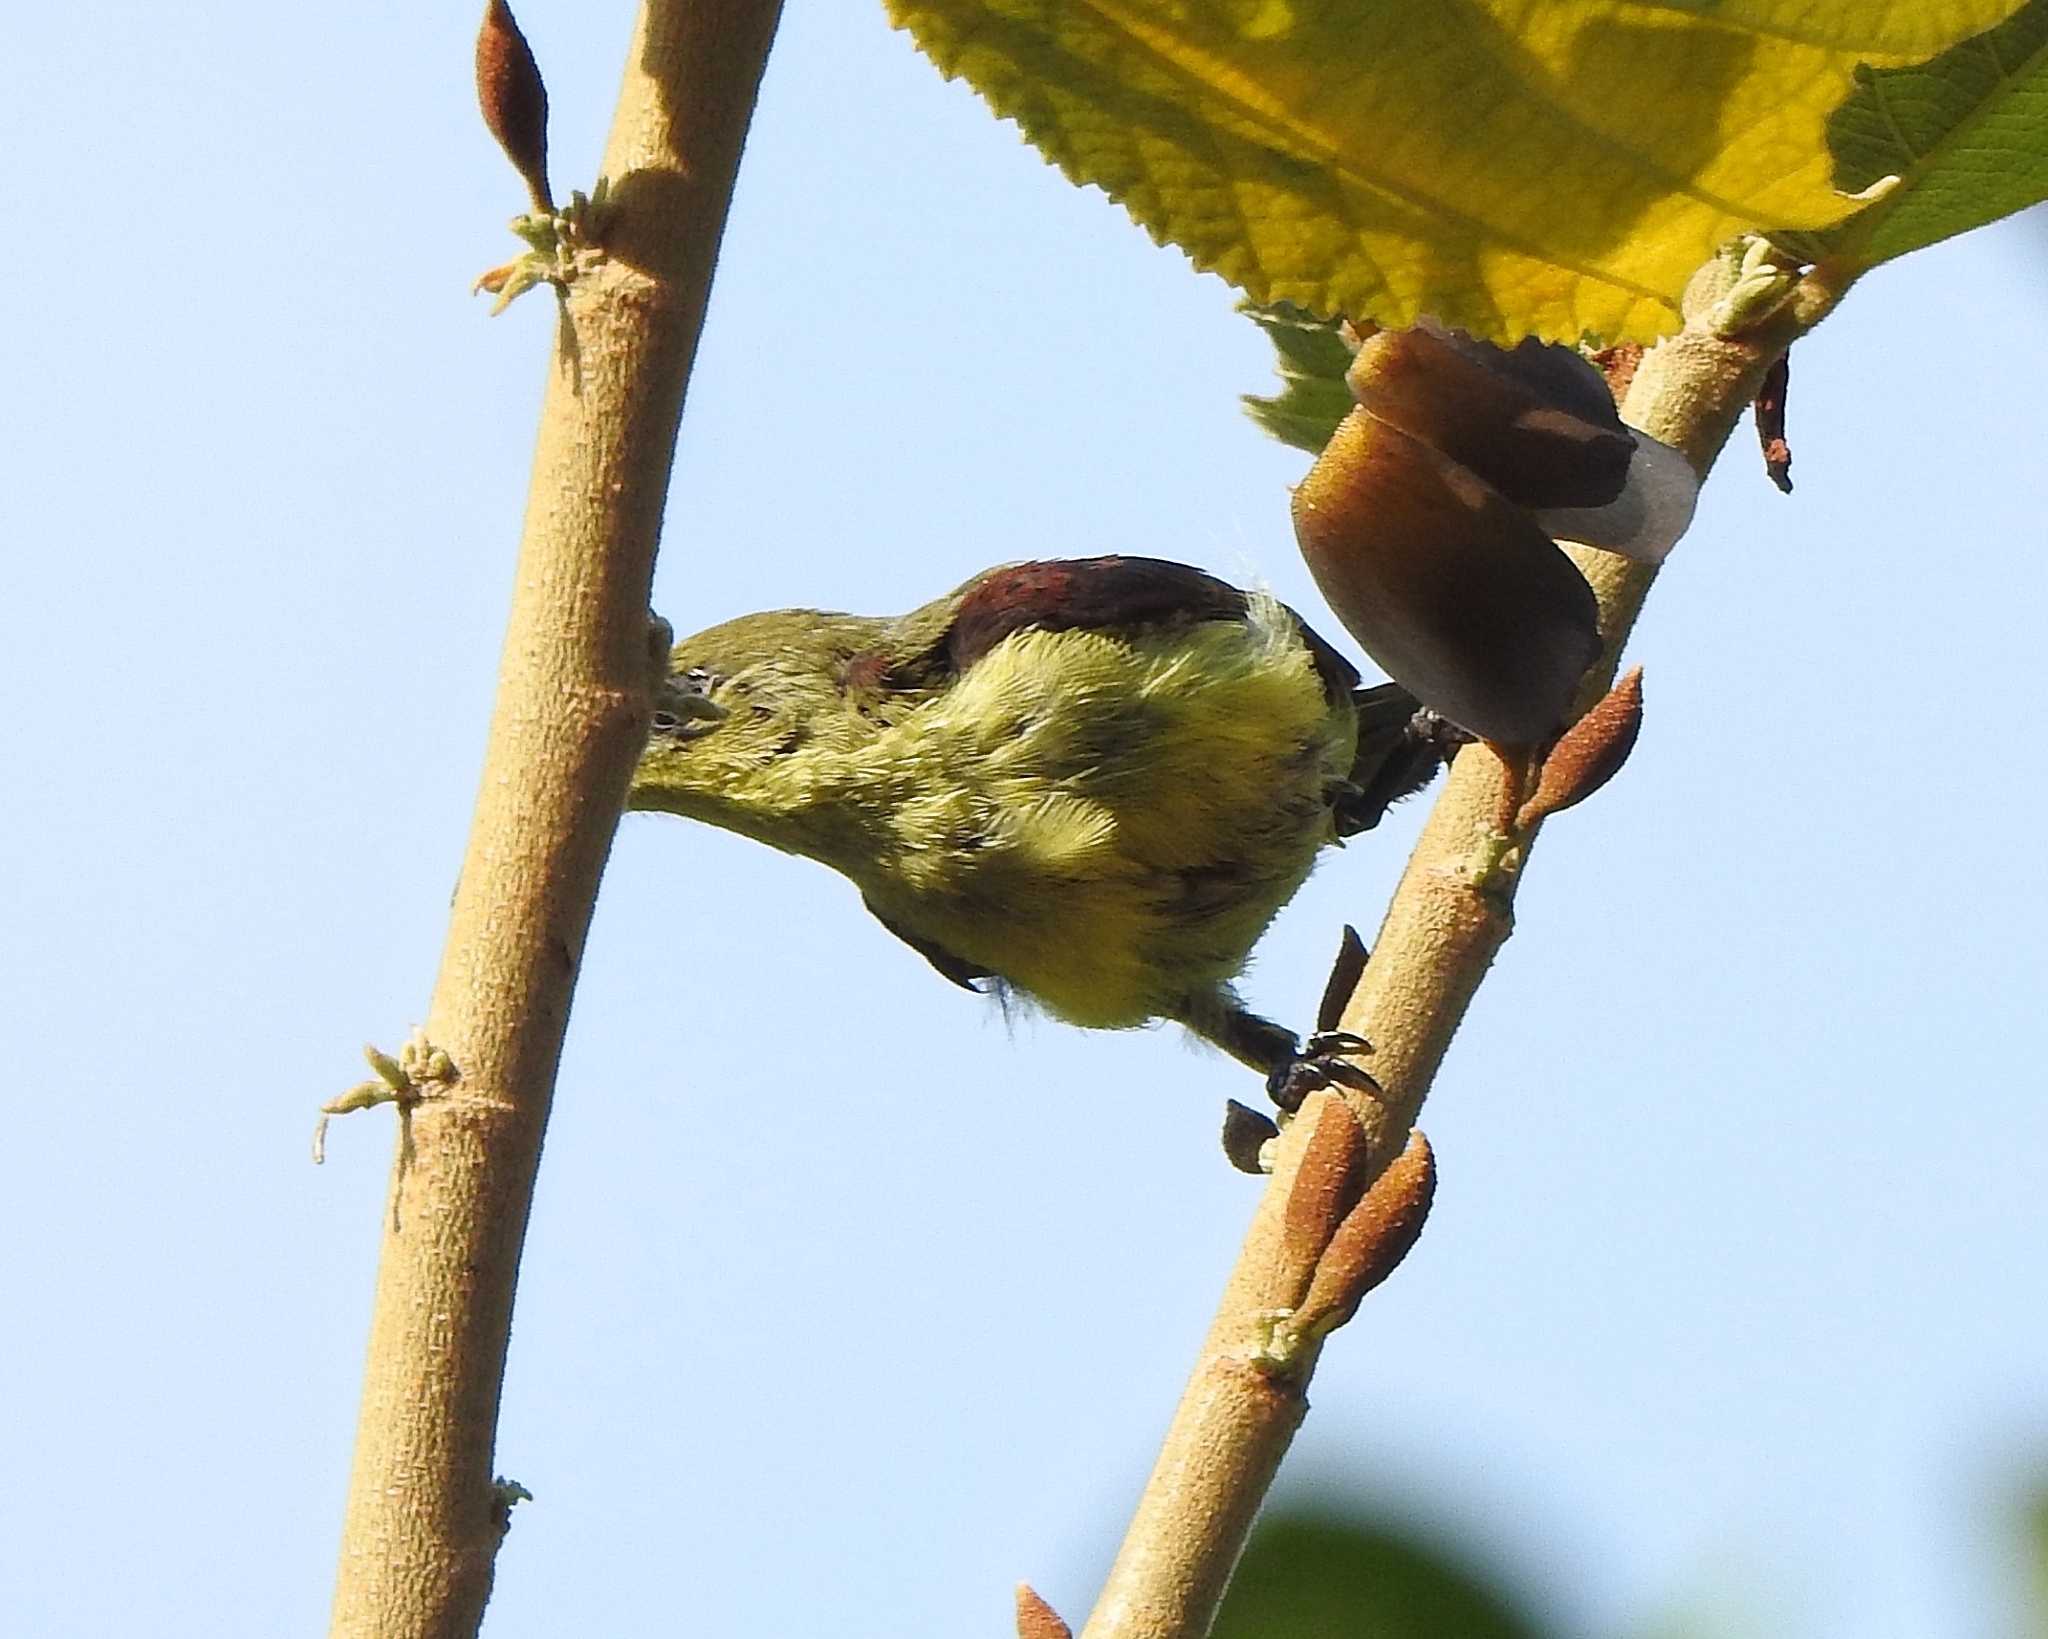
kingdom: Animalia
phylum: Chordata
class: Aves
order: Passeriformes
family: Nectariniidae
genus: Leptocoma
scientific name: Leptocoma minima
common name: Crimson-backed sunbird
